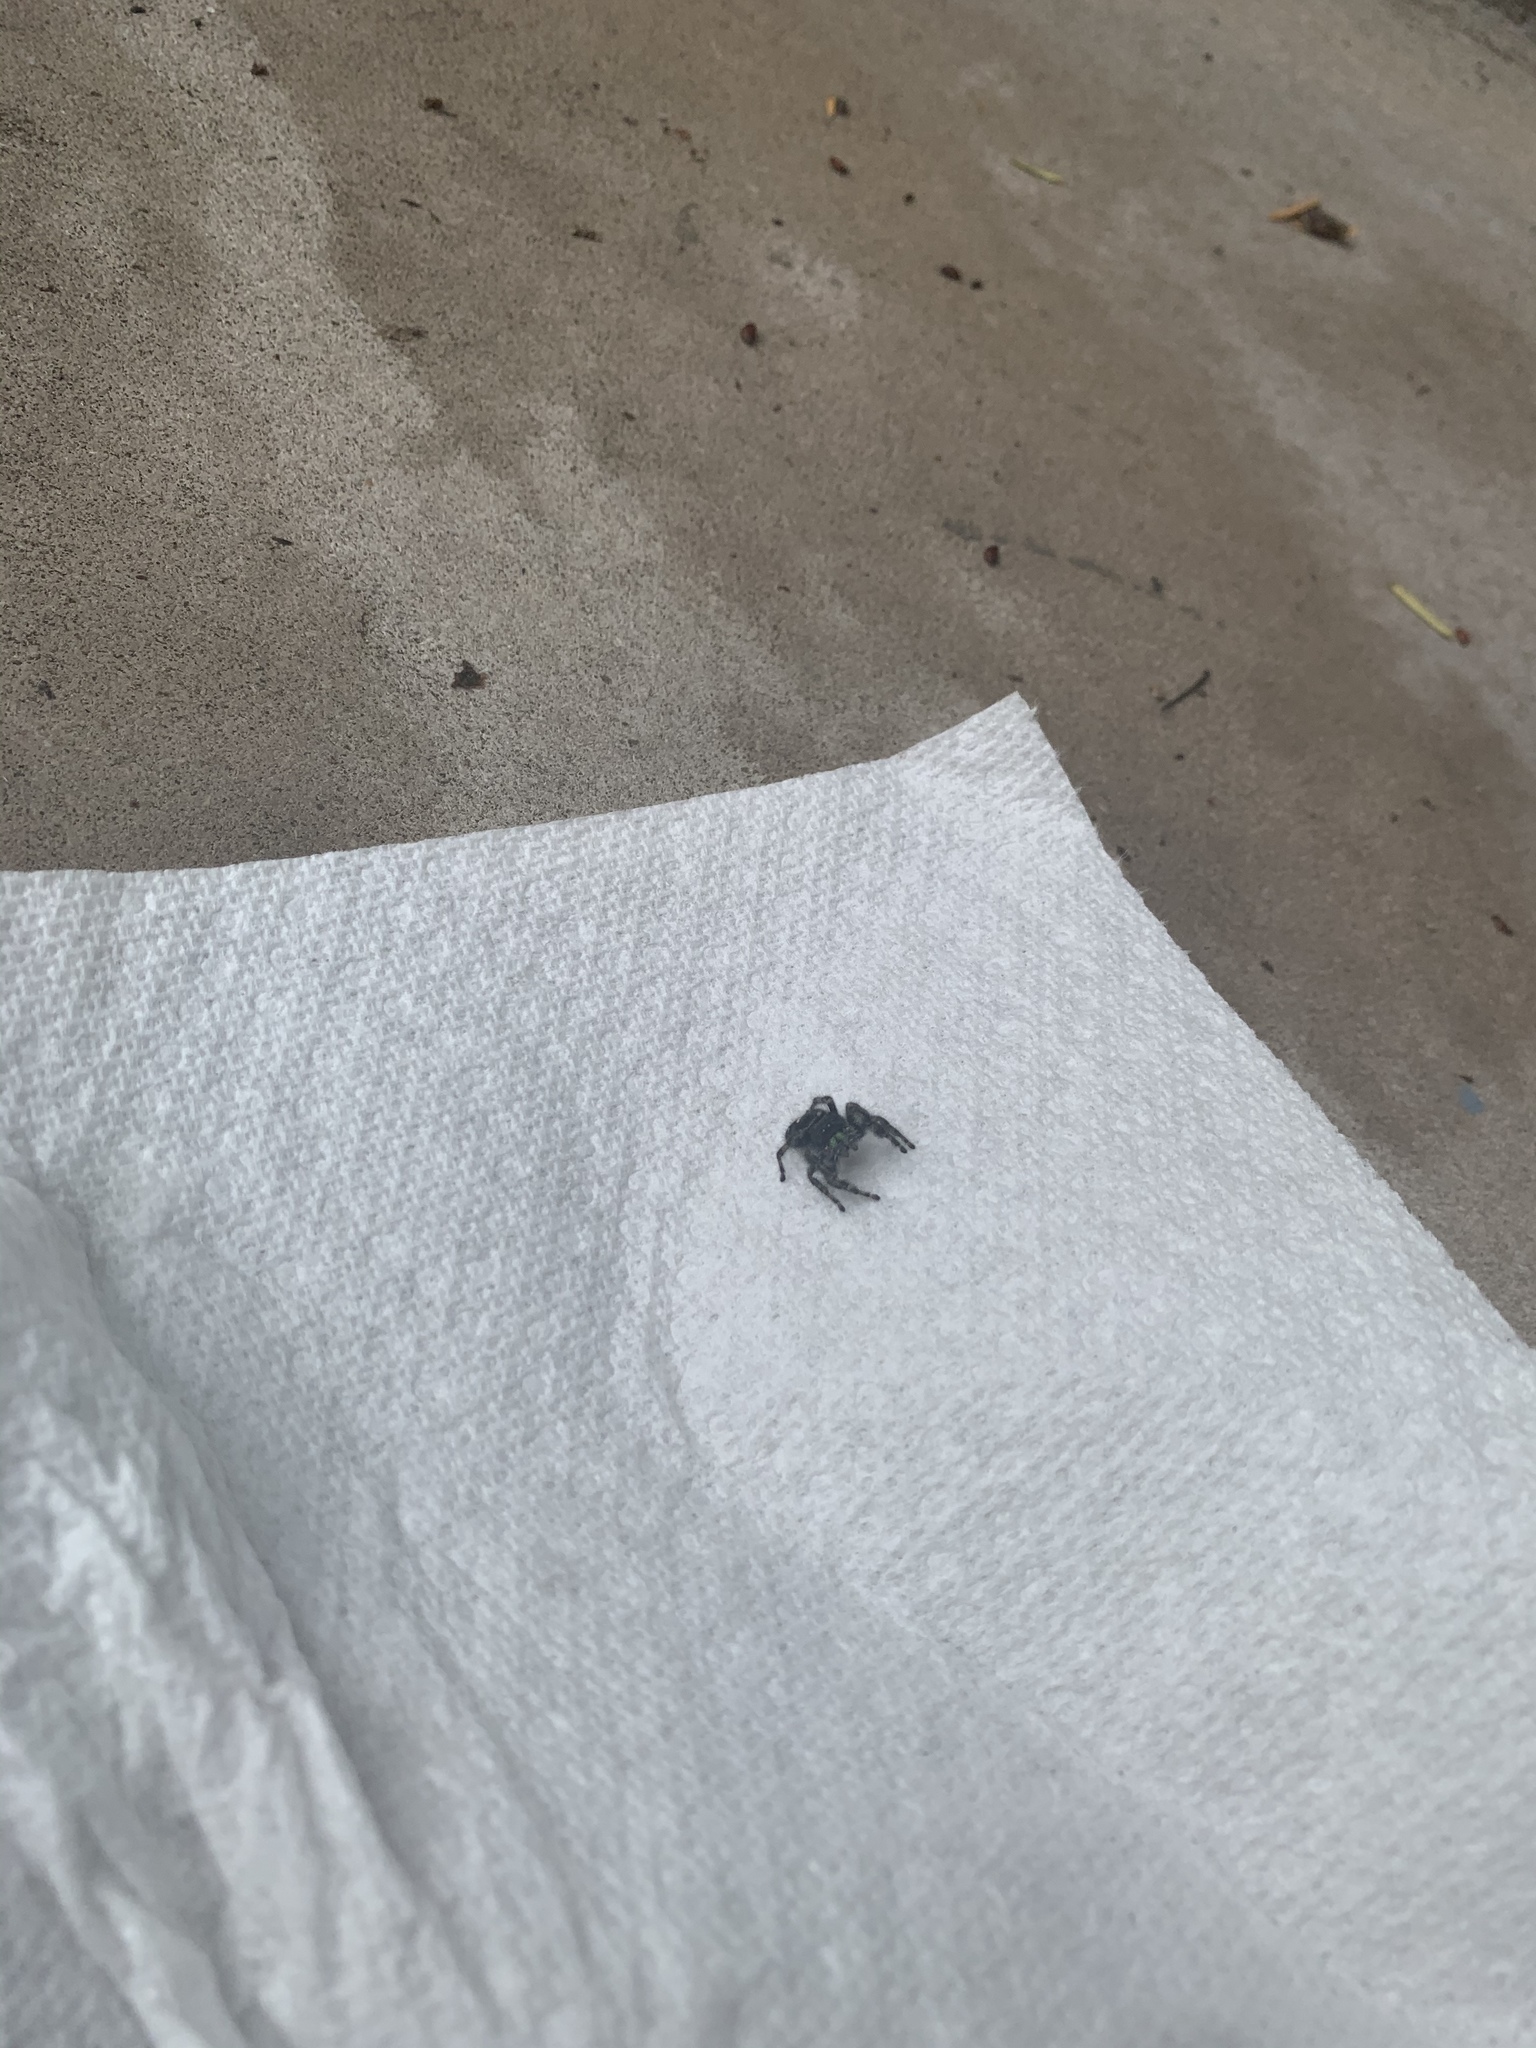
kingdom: Animalia
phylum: Arthropoda
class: Arachnida
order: Araneae
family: Salticidae
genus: Phidippus
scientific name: Phidippus audax
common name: Bold jumper
